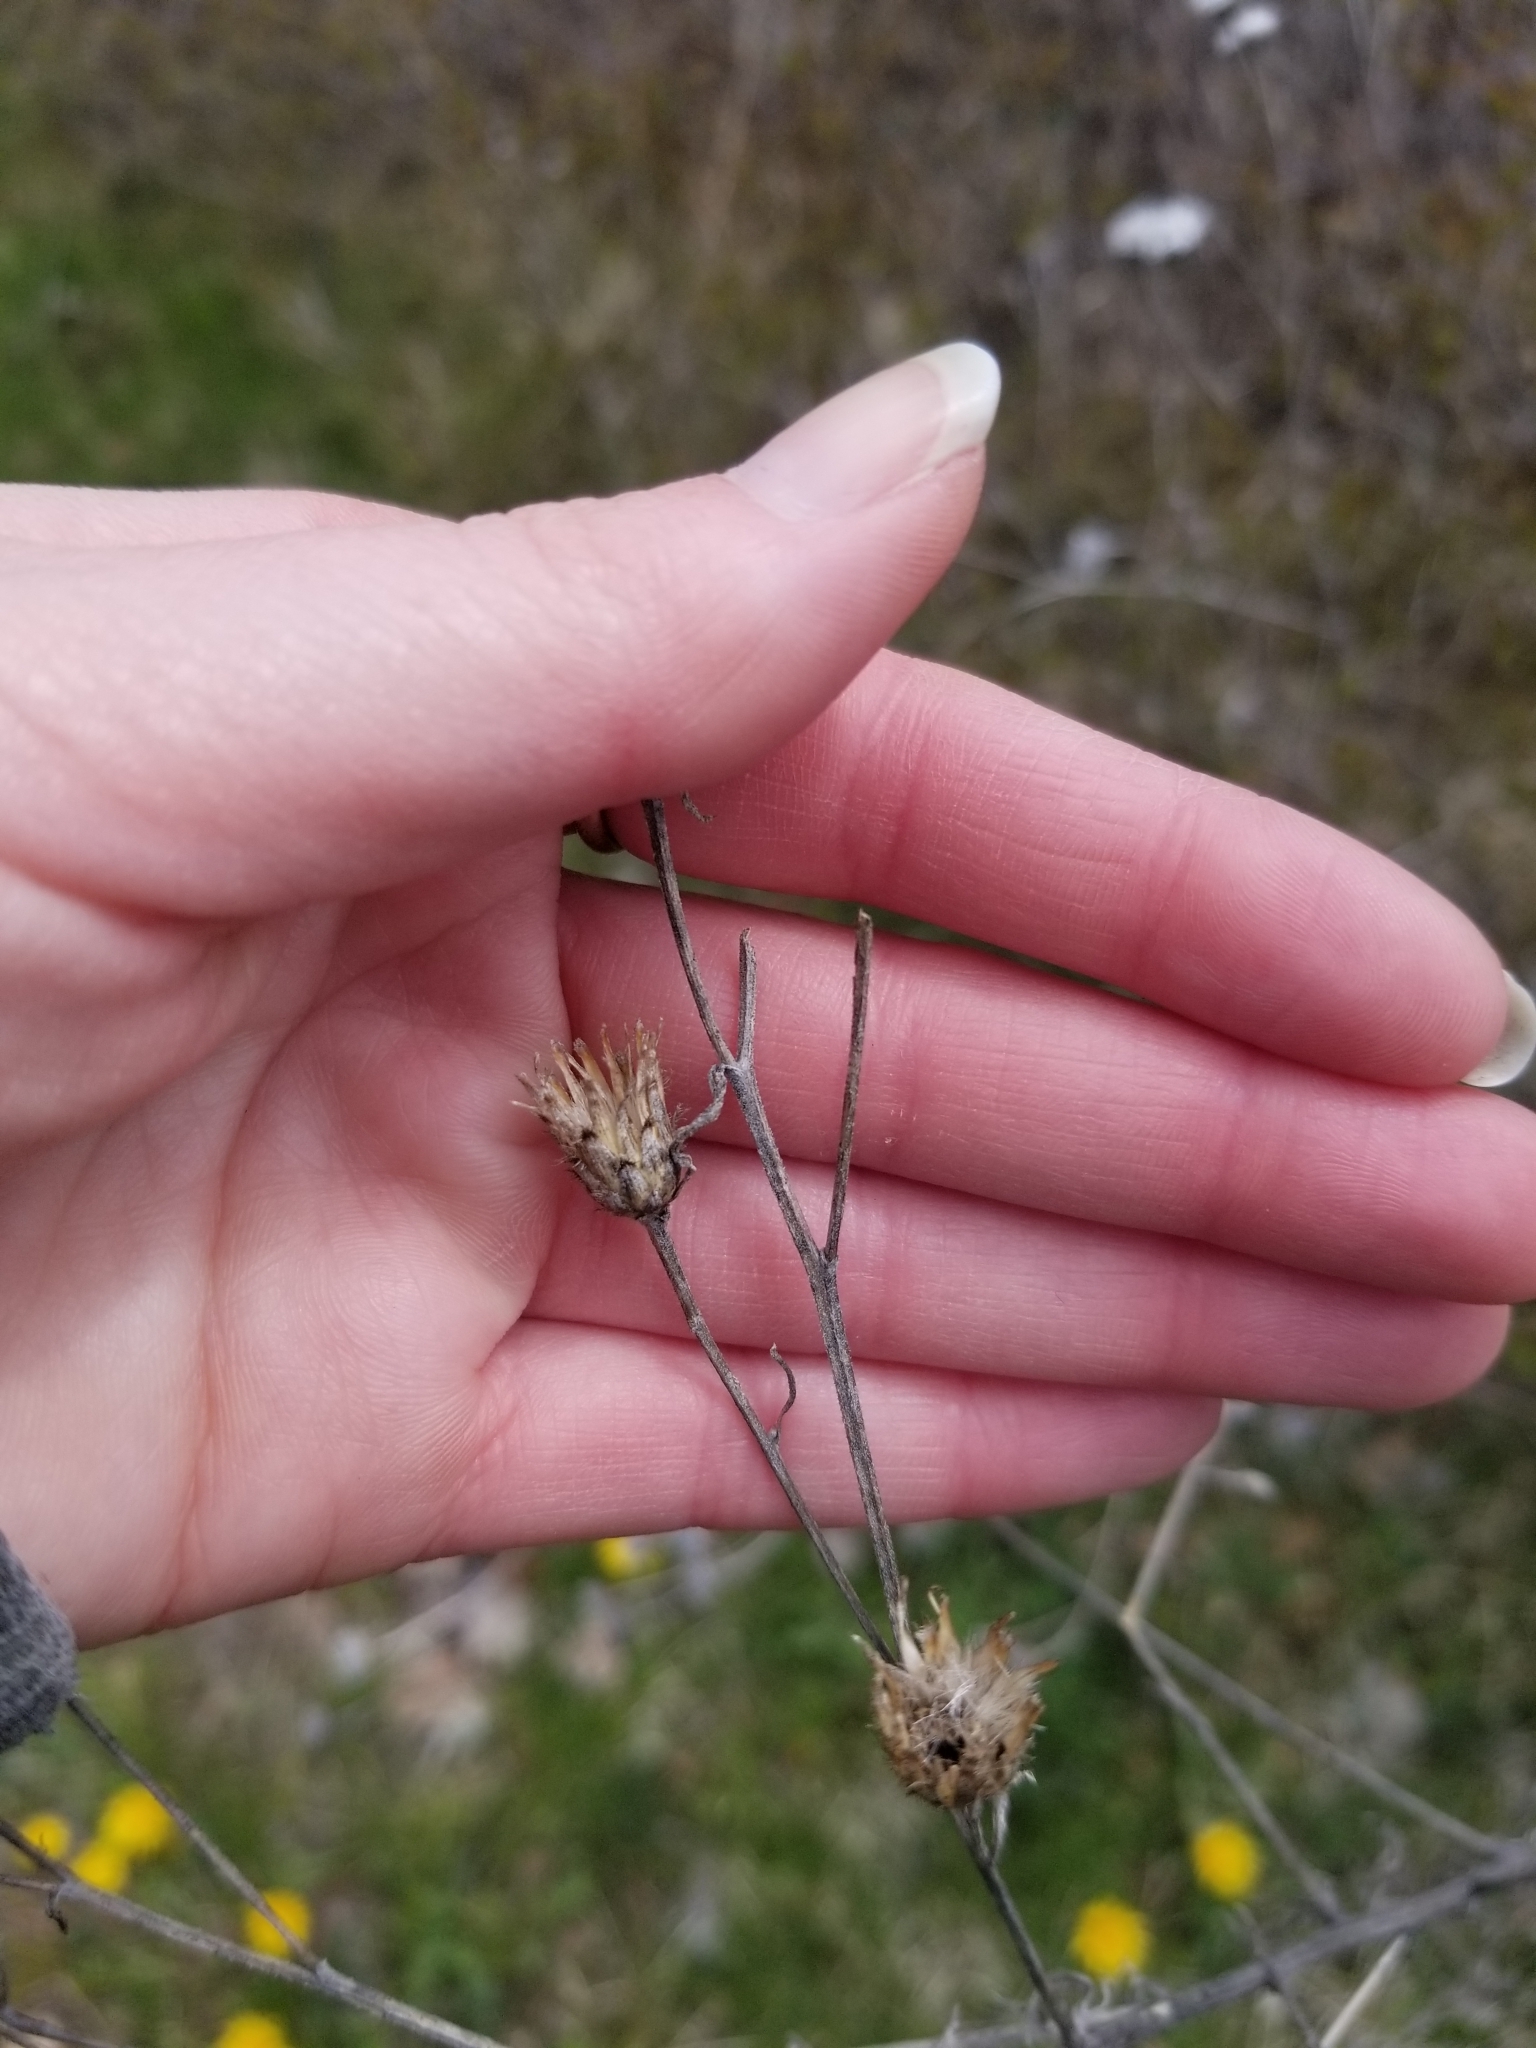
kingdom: Plantae
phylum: Tracheophyta
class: Magnoliopsida
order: Asterales
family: Asteraceae
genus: Centaurea
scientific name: Centaurea stoebe
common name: Spotted knapweed
